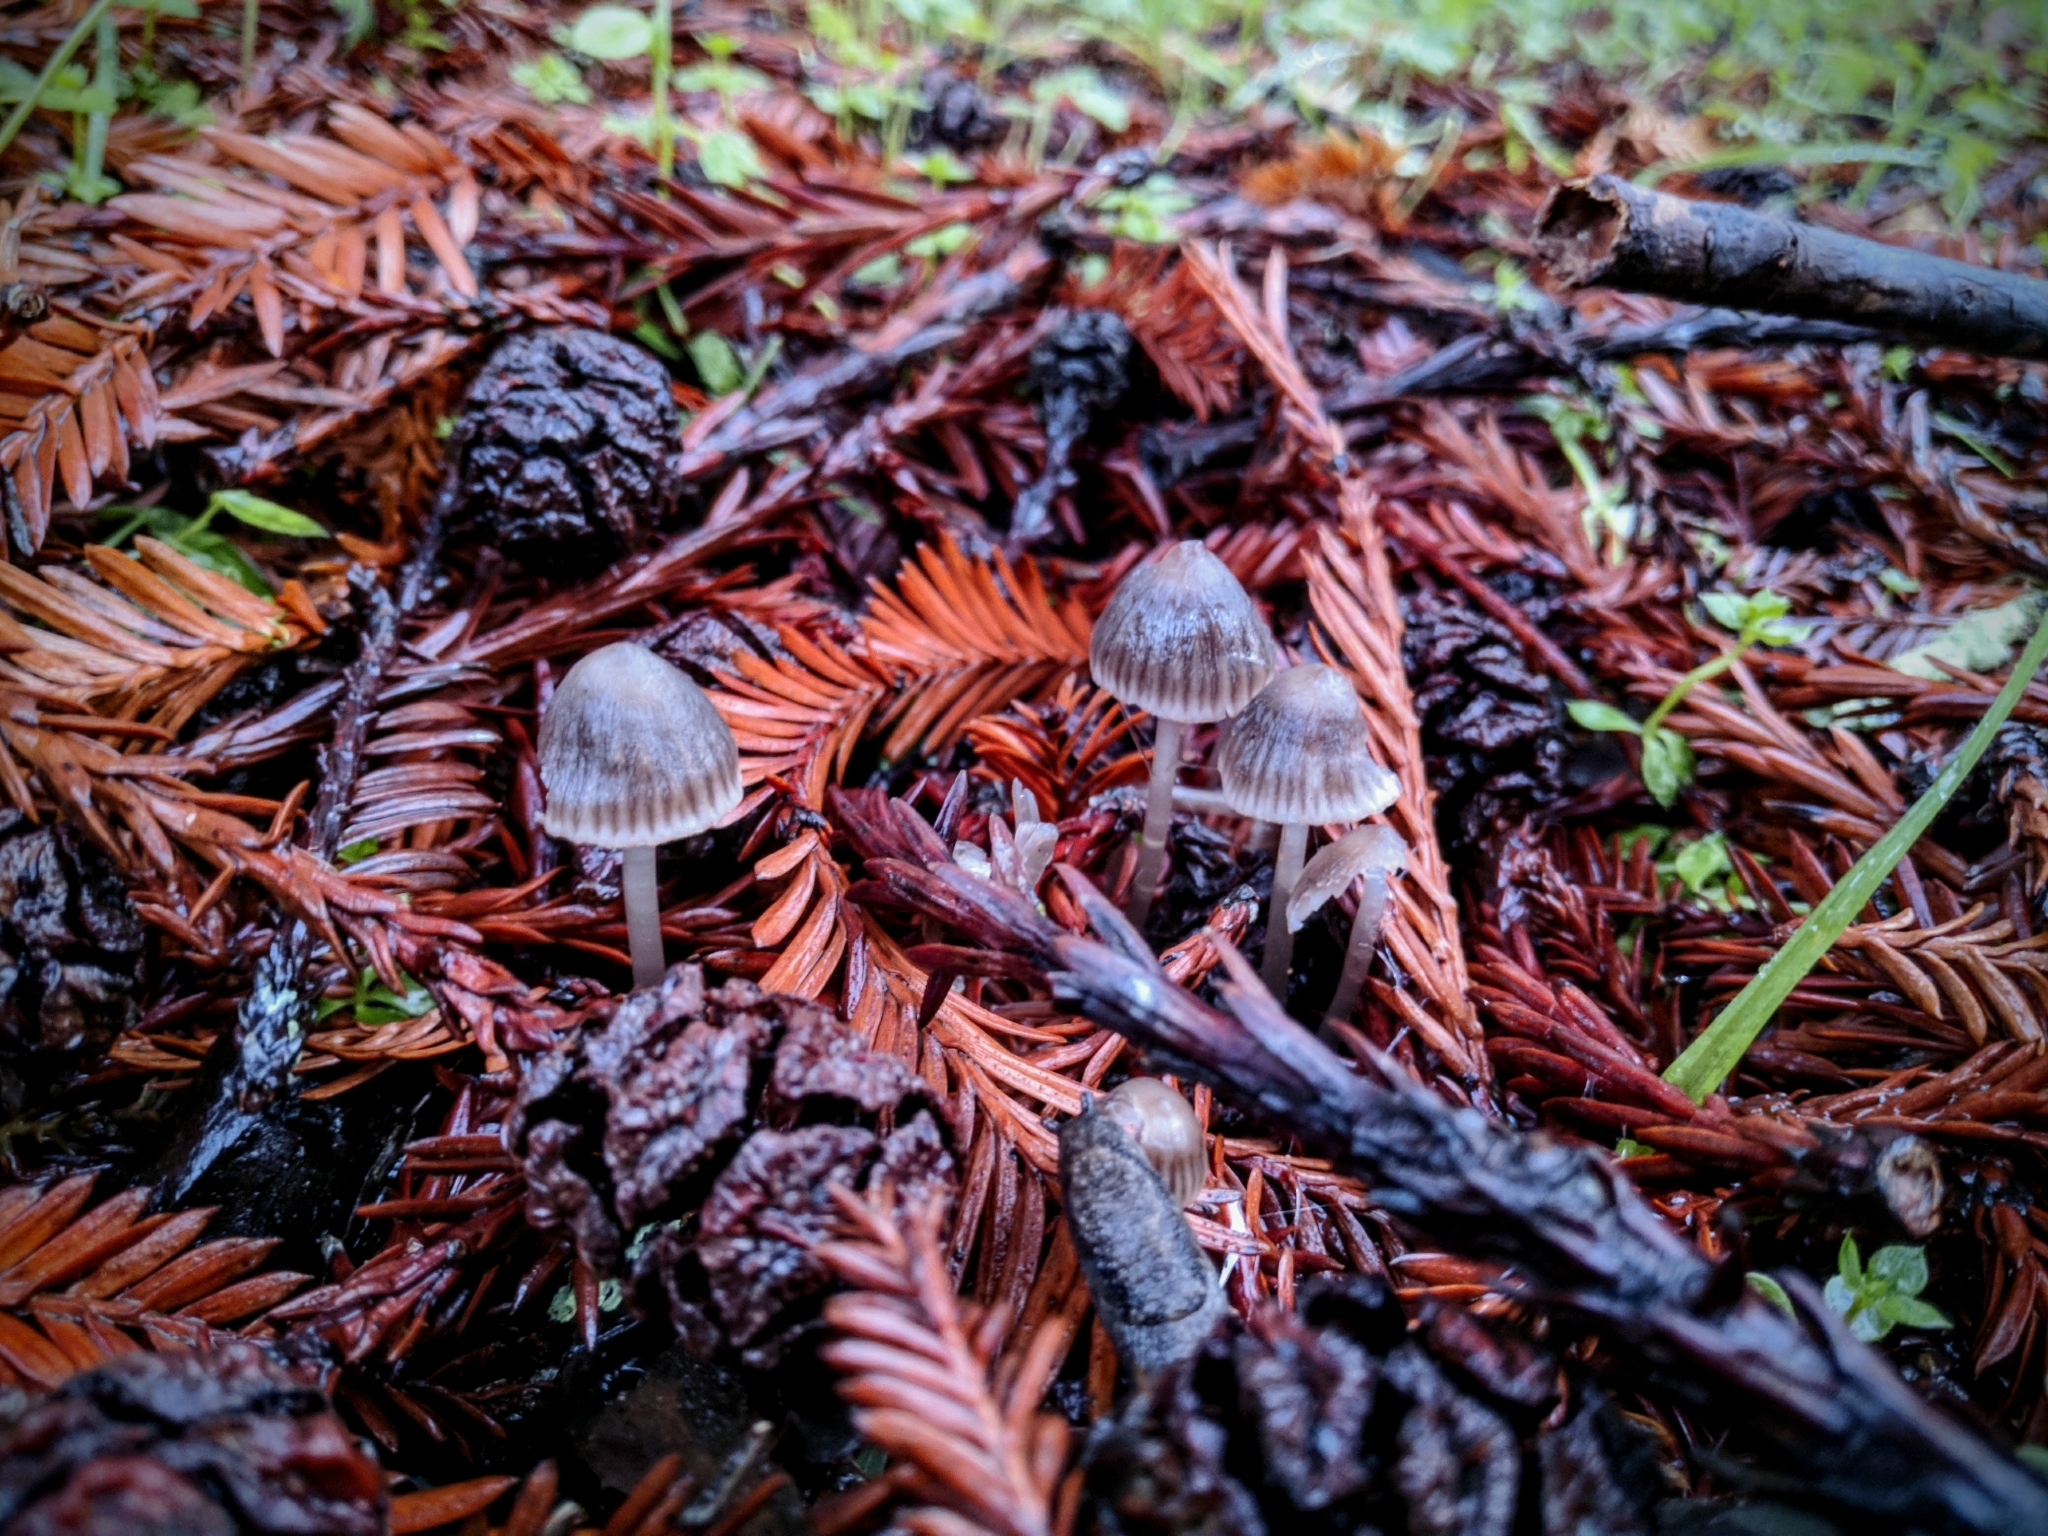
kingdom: Fungi
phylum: Basidiomycota
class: Agaricomycetes
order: Agaricales
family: Mycenaceae
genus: Mycena
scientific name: Mycena capillaripes
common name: Pinkedge bonnet
